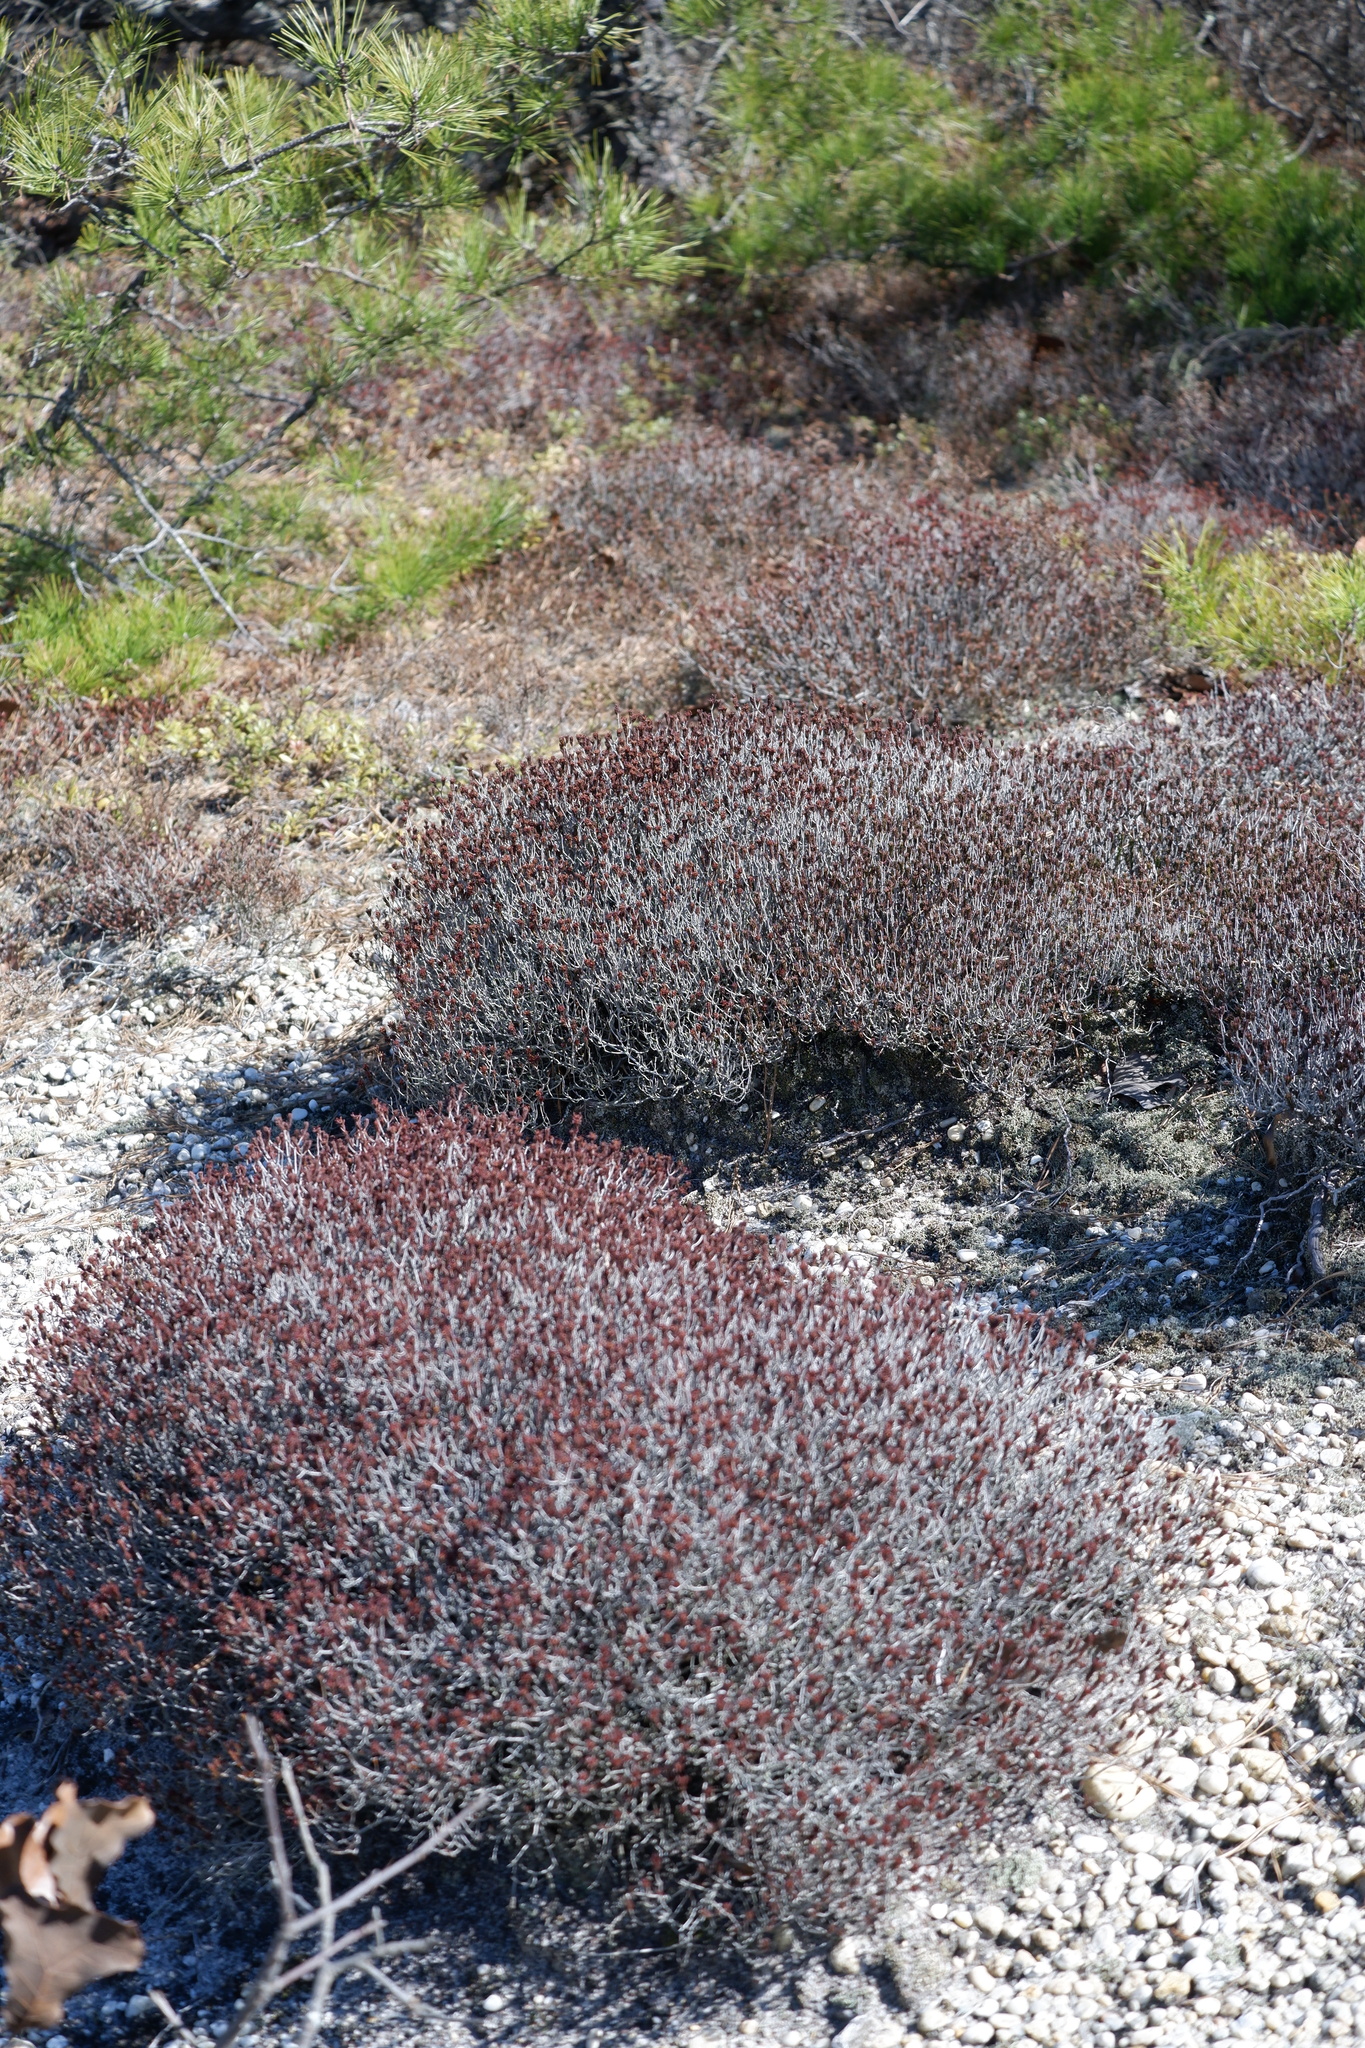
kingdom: Plantae
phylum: Tracheophyta
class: Magnoliopsida
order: Ericales
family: Ericaceae
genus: Corema
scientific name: Corema conradii
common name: Broom-crowberry
